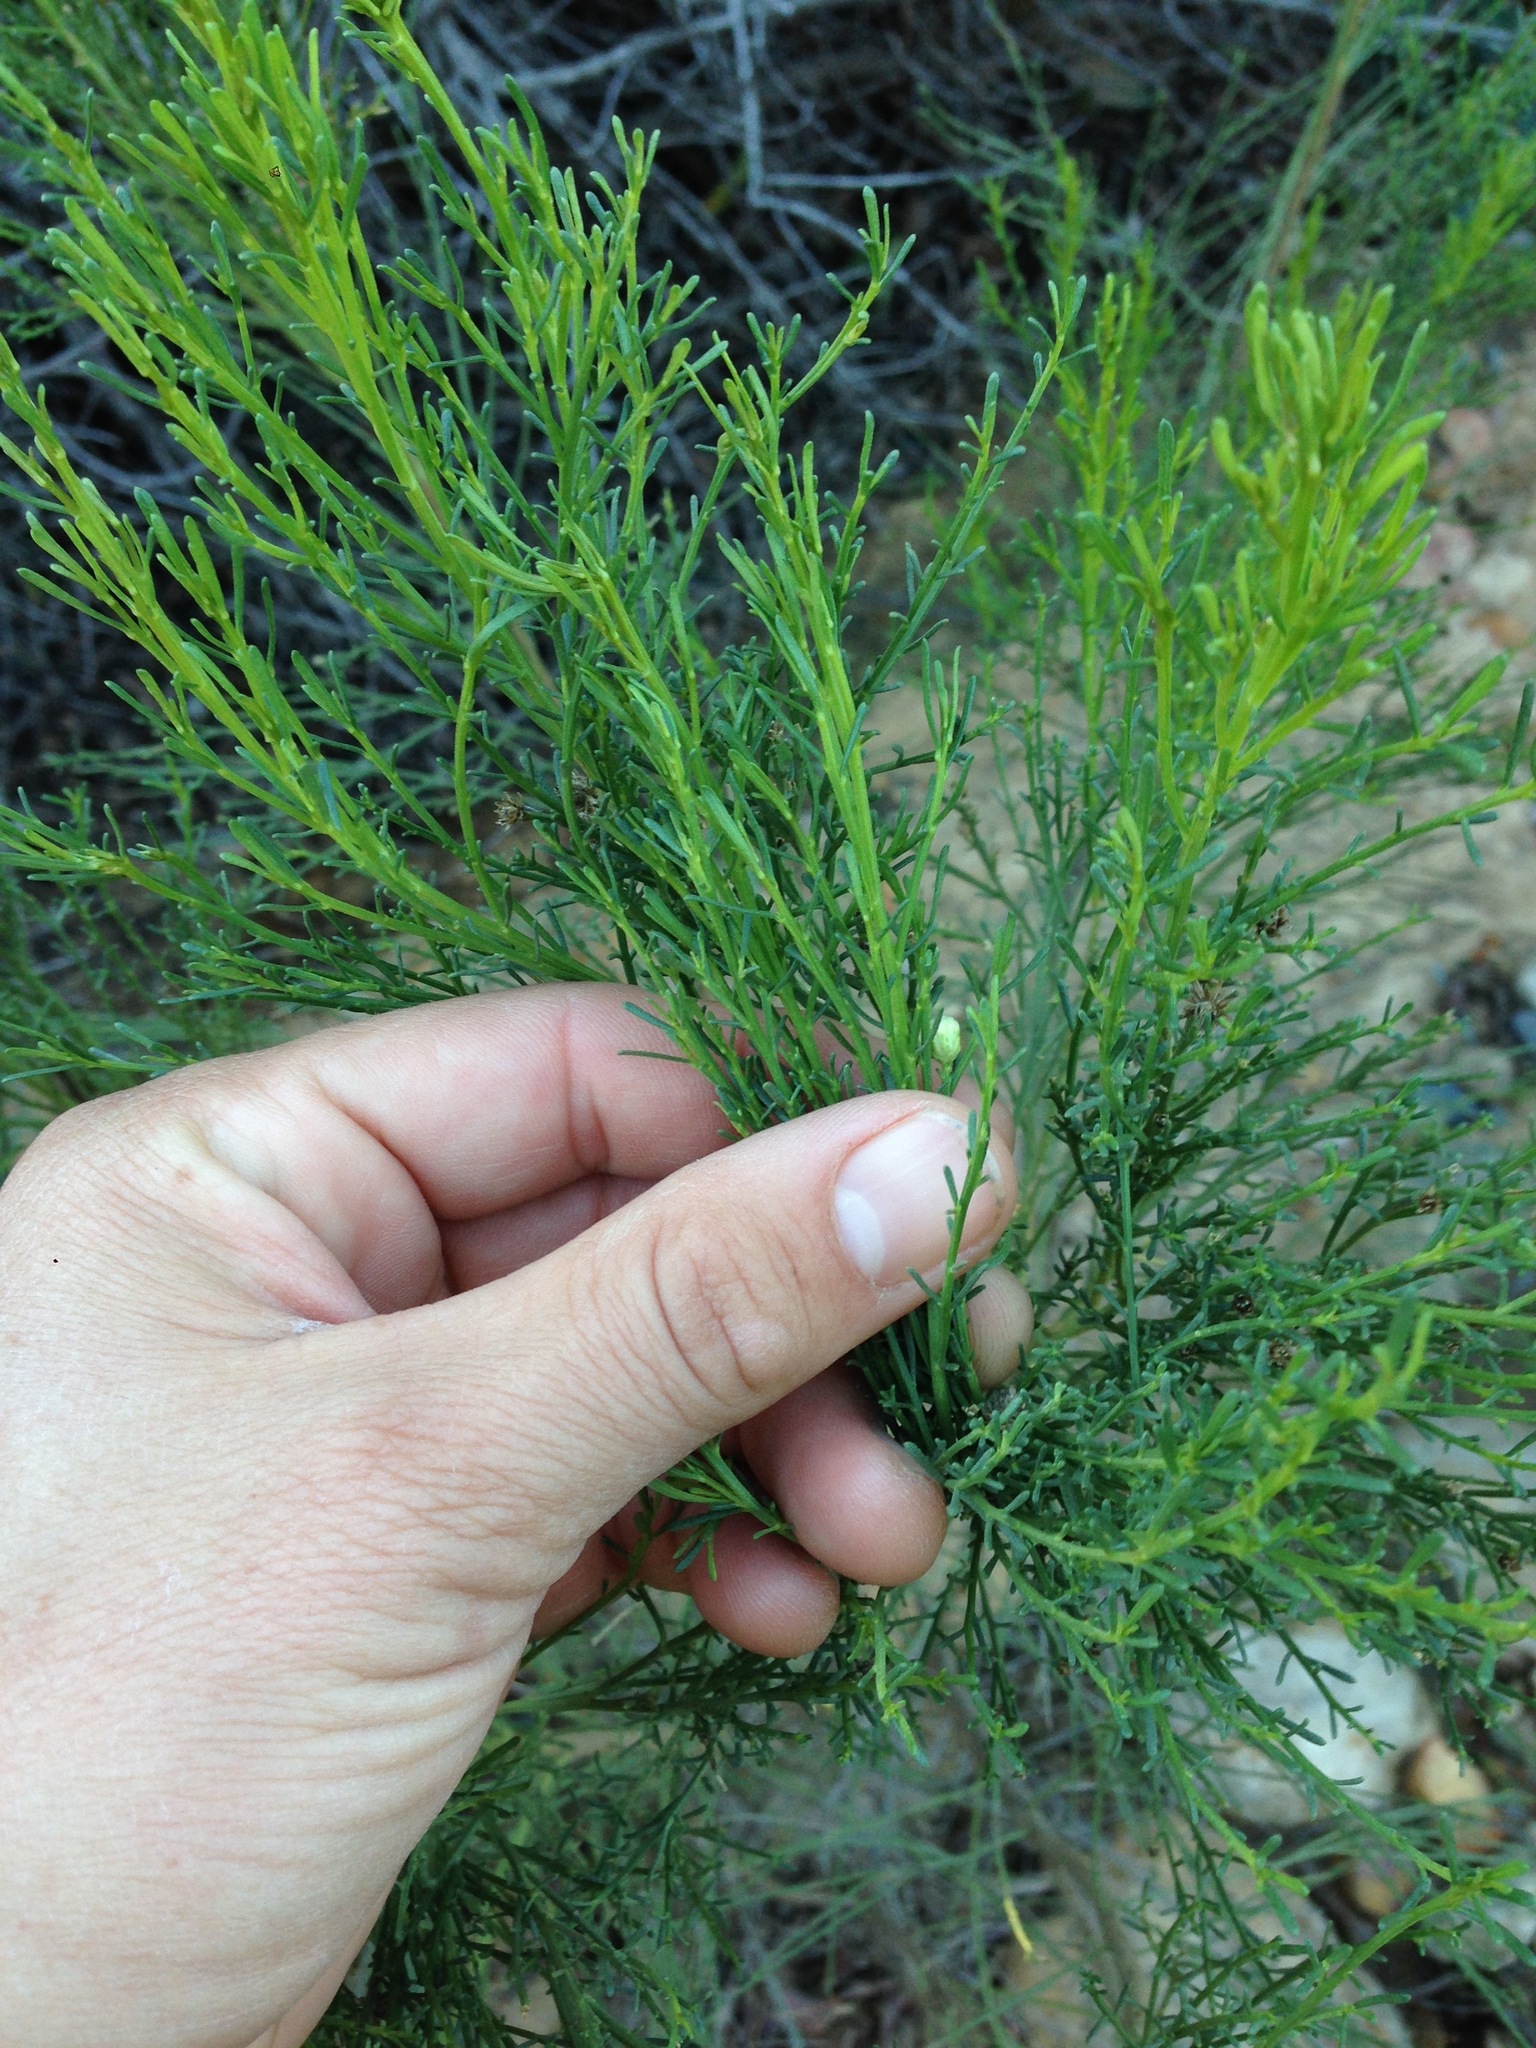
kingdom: Plantae
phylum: Tracheophyta
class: Magnoliopsida
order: Asterales
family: Asteraceae
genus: Baccharis
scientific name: Baccharis sarothroides
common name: Desert-broom
